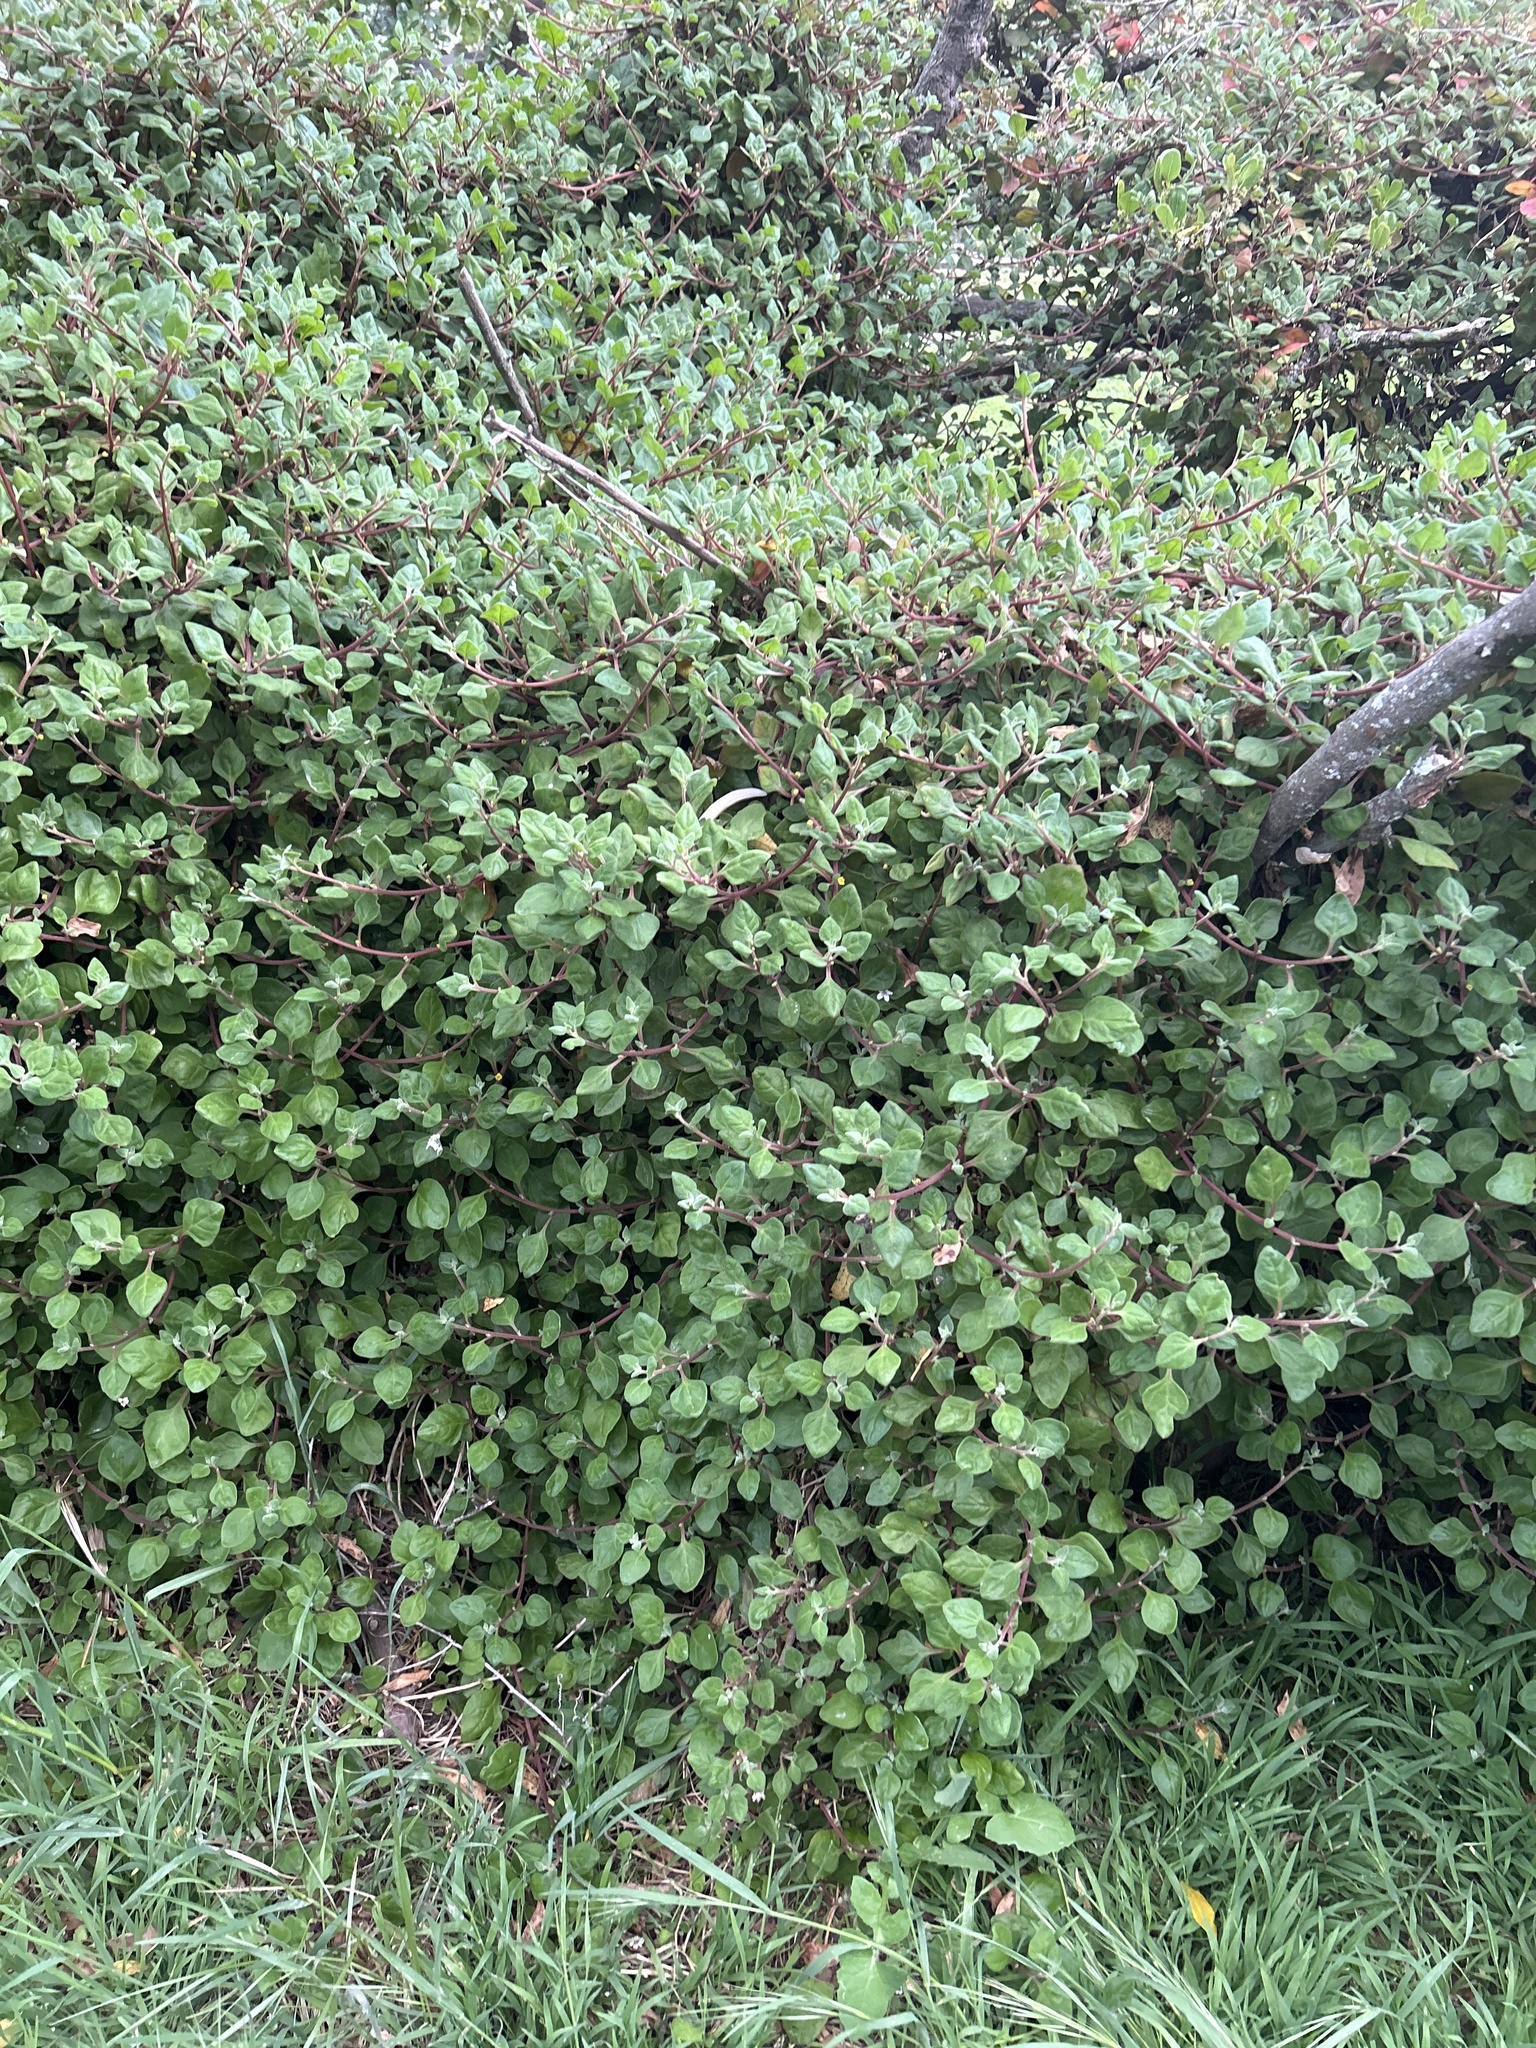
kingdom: Plantae
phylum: Tracheophyta
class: Magnoliopsida
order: Caryophyllales
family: Aizoaceae
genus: Tetragonia
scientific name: Tetragonia implexicoma
